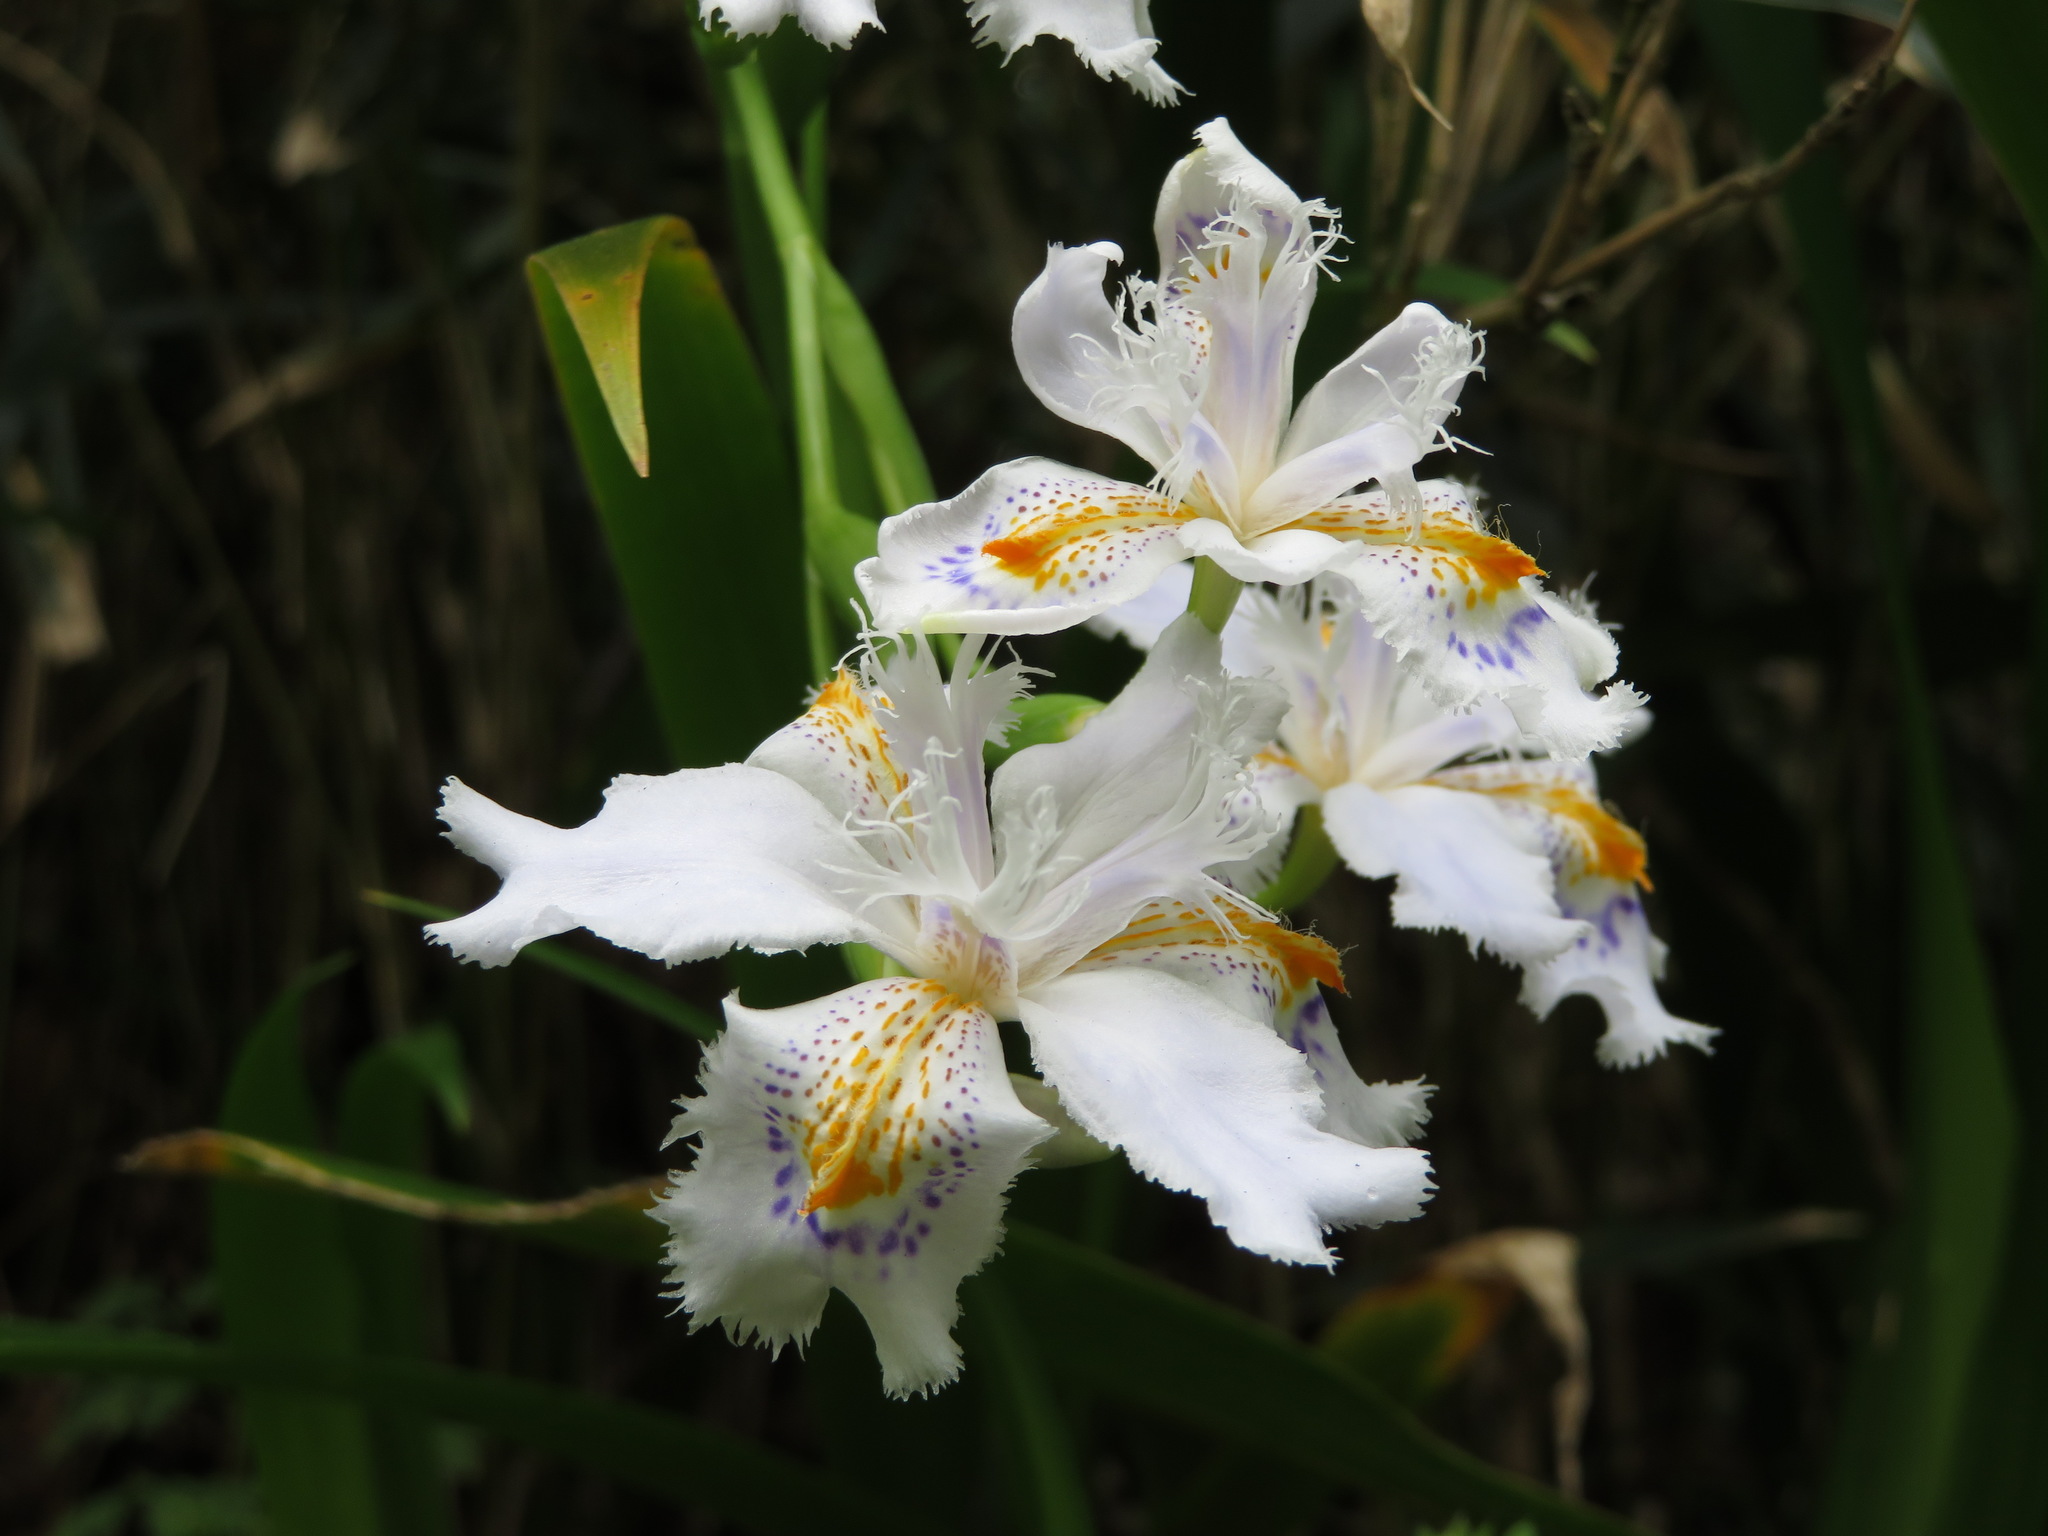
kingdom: Plantae
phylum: Tracheophyta
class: Liliopsida
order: Asparagales
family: Iridaceae
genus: Iris
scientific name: Iris japonica
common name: Butterfly-flower
